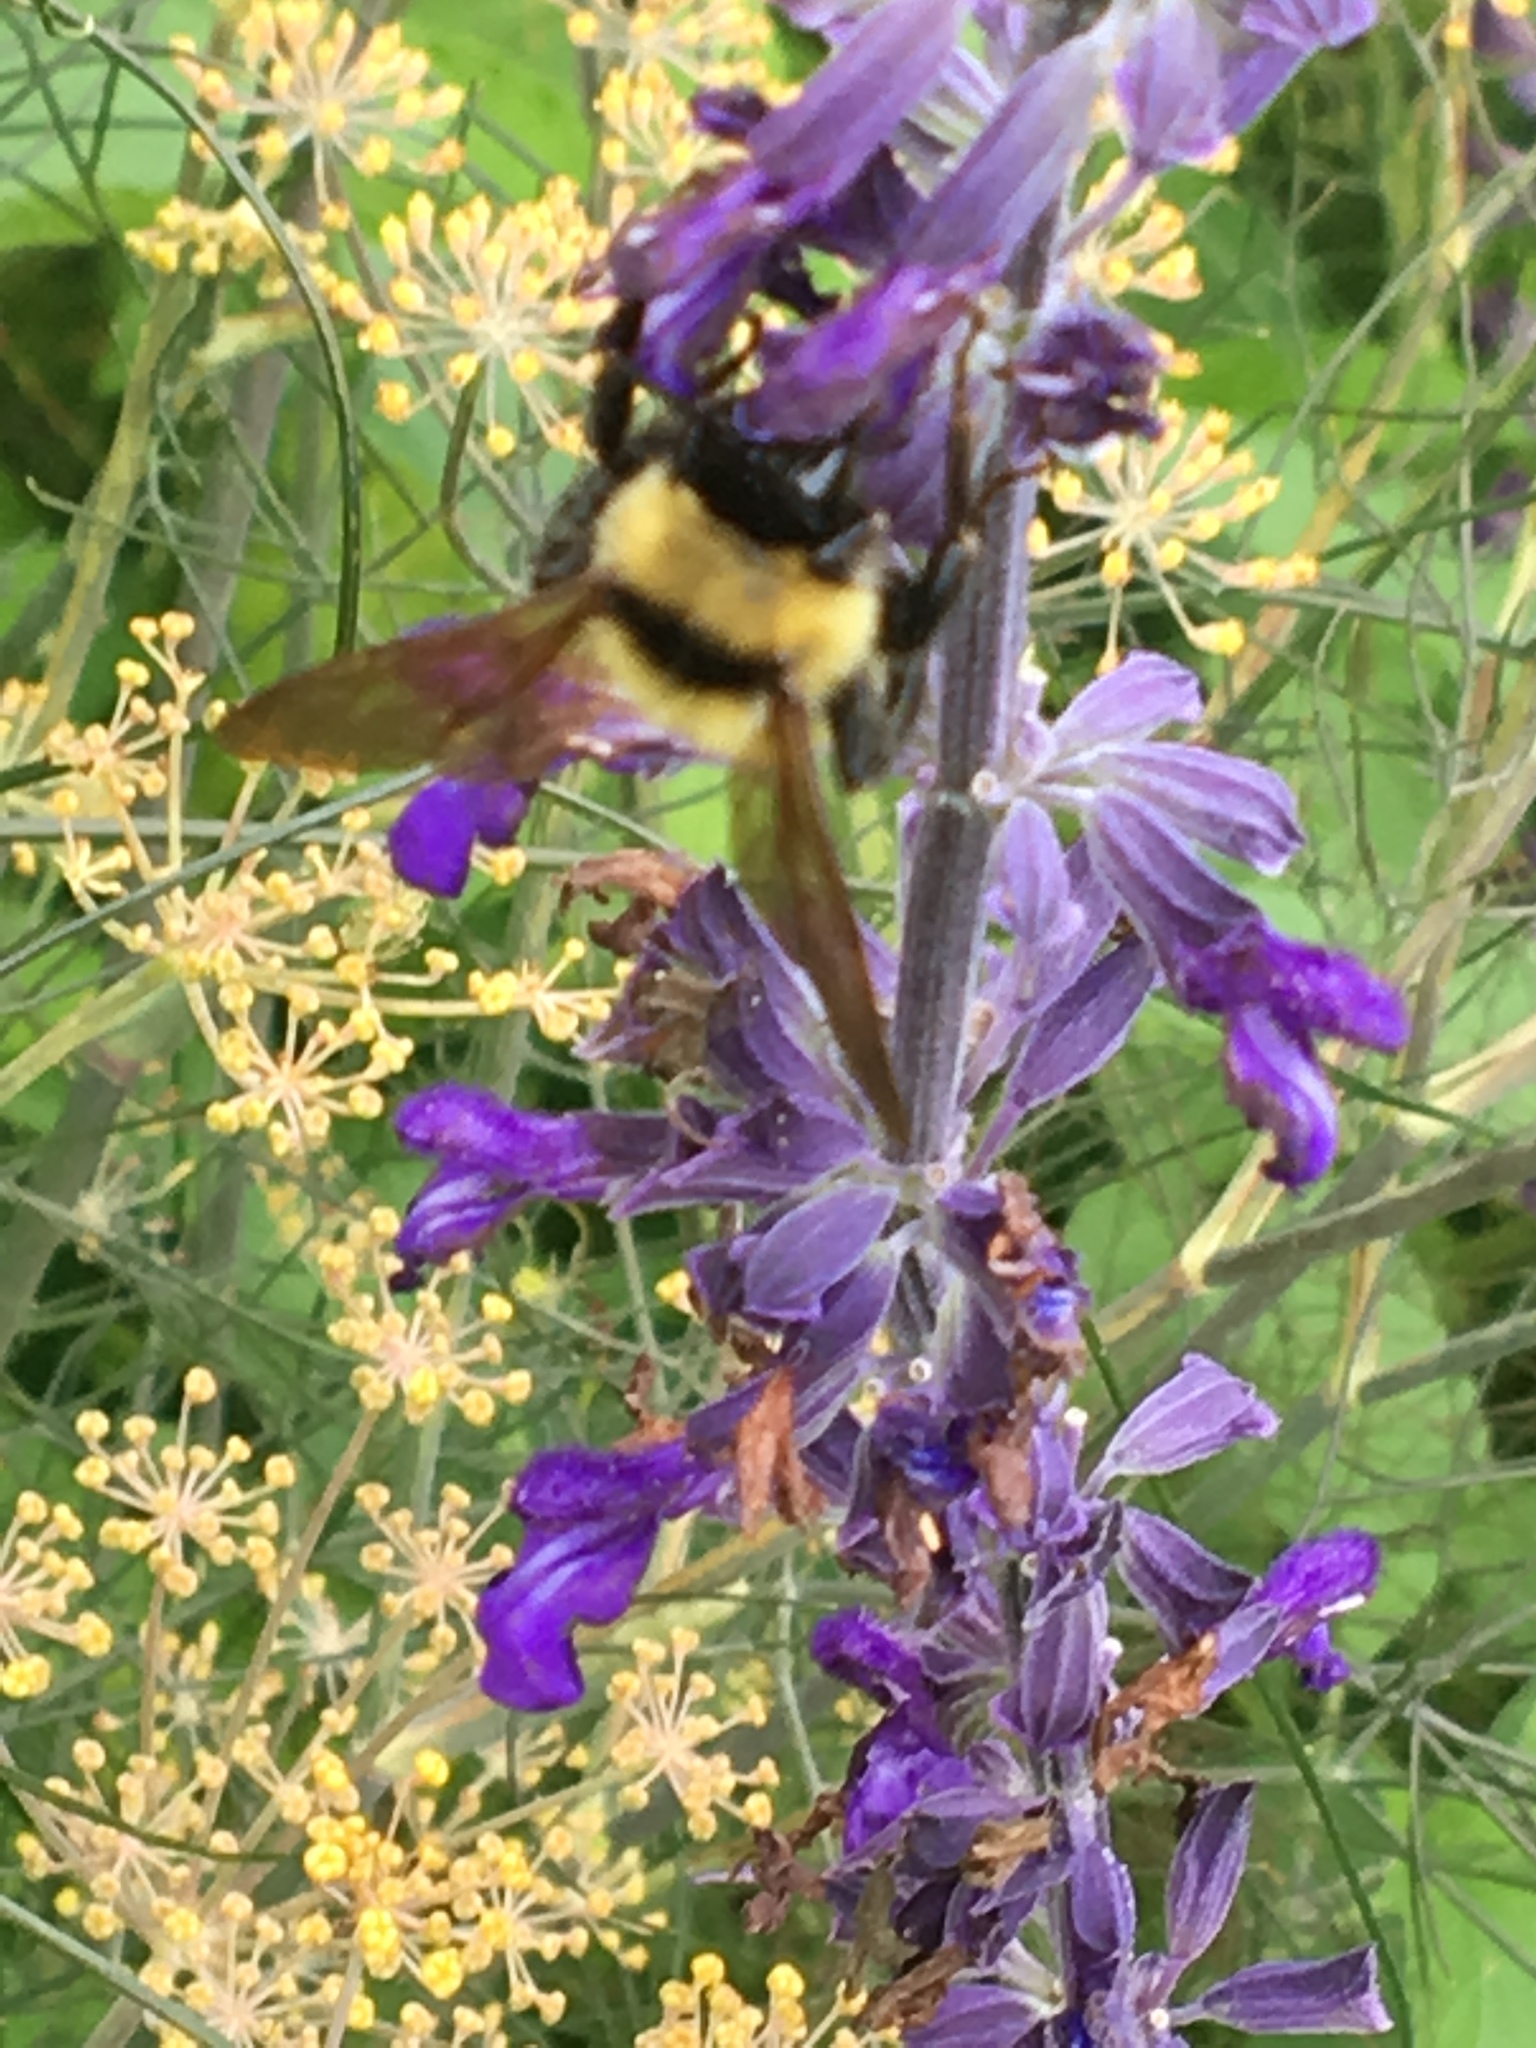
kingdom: Animalia
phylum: Arthropoda
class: Insecta
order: Hymenoptera
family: Apidae
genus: Bombus
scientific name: Bombus fervidus
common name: Yellow bumble bee
